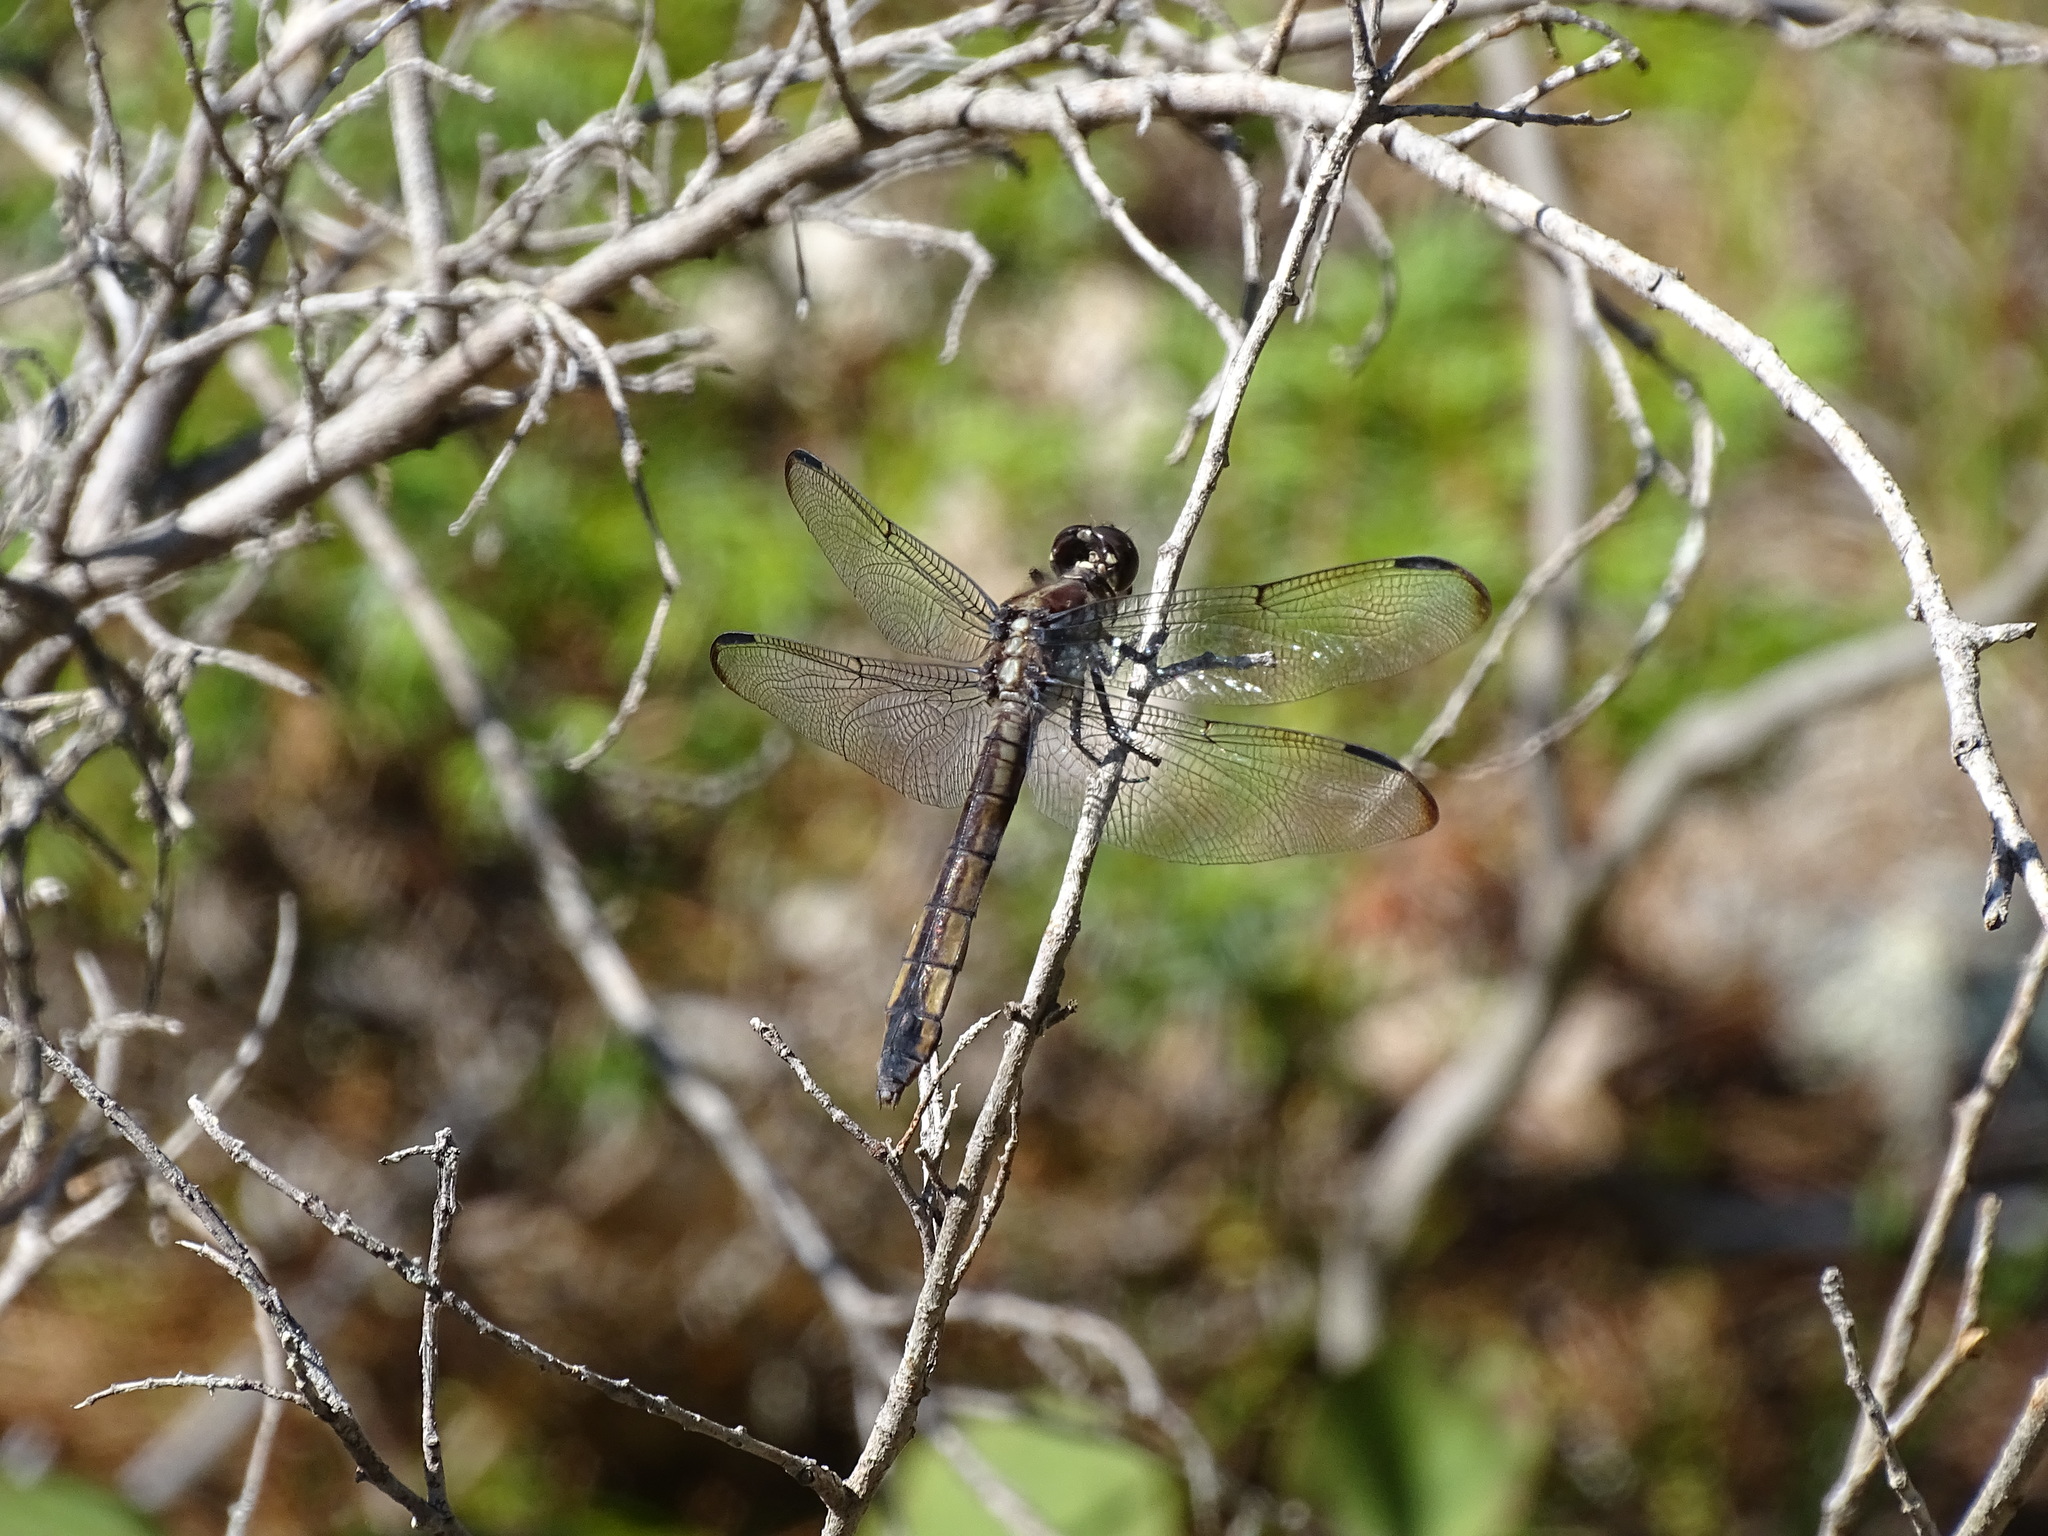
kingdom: Animalia
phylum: Arthropoda
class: Insecta
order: Odonata
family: Libellulidae
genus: Libellula
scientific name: Libellula incesta
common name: Slaty skimmer
